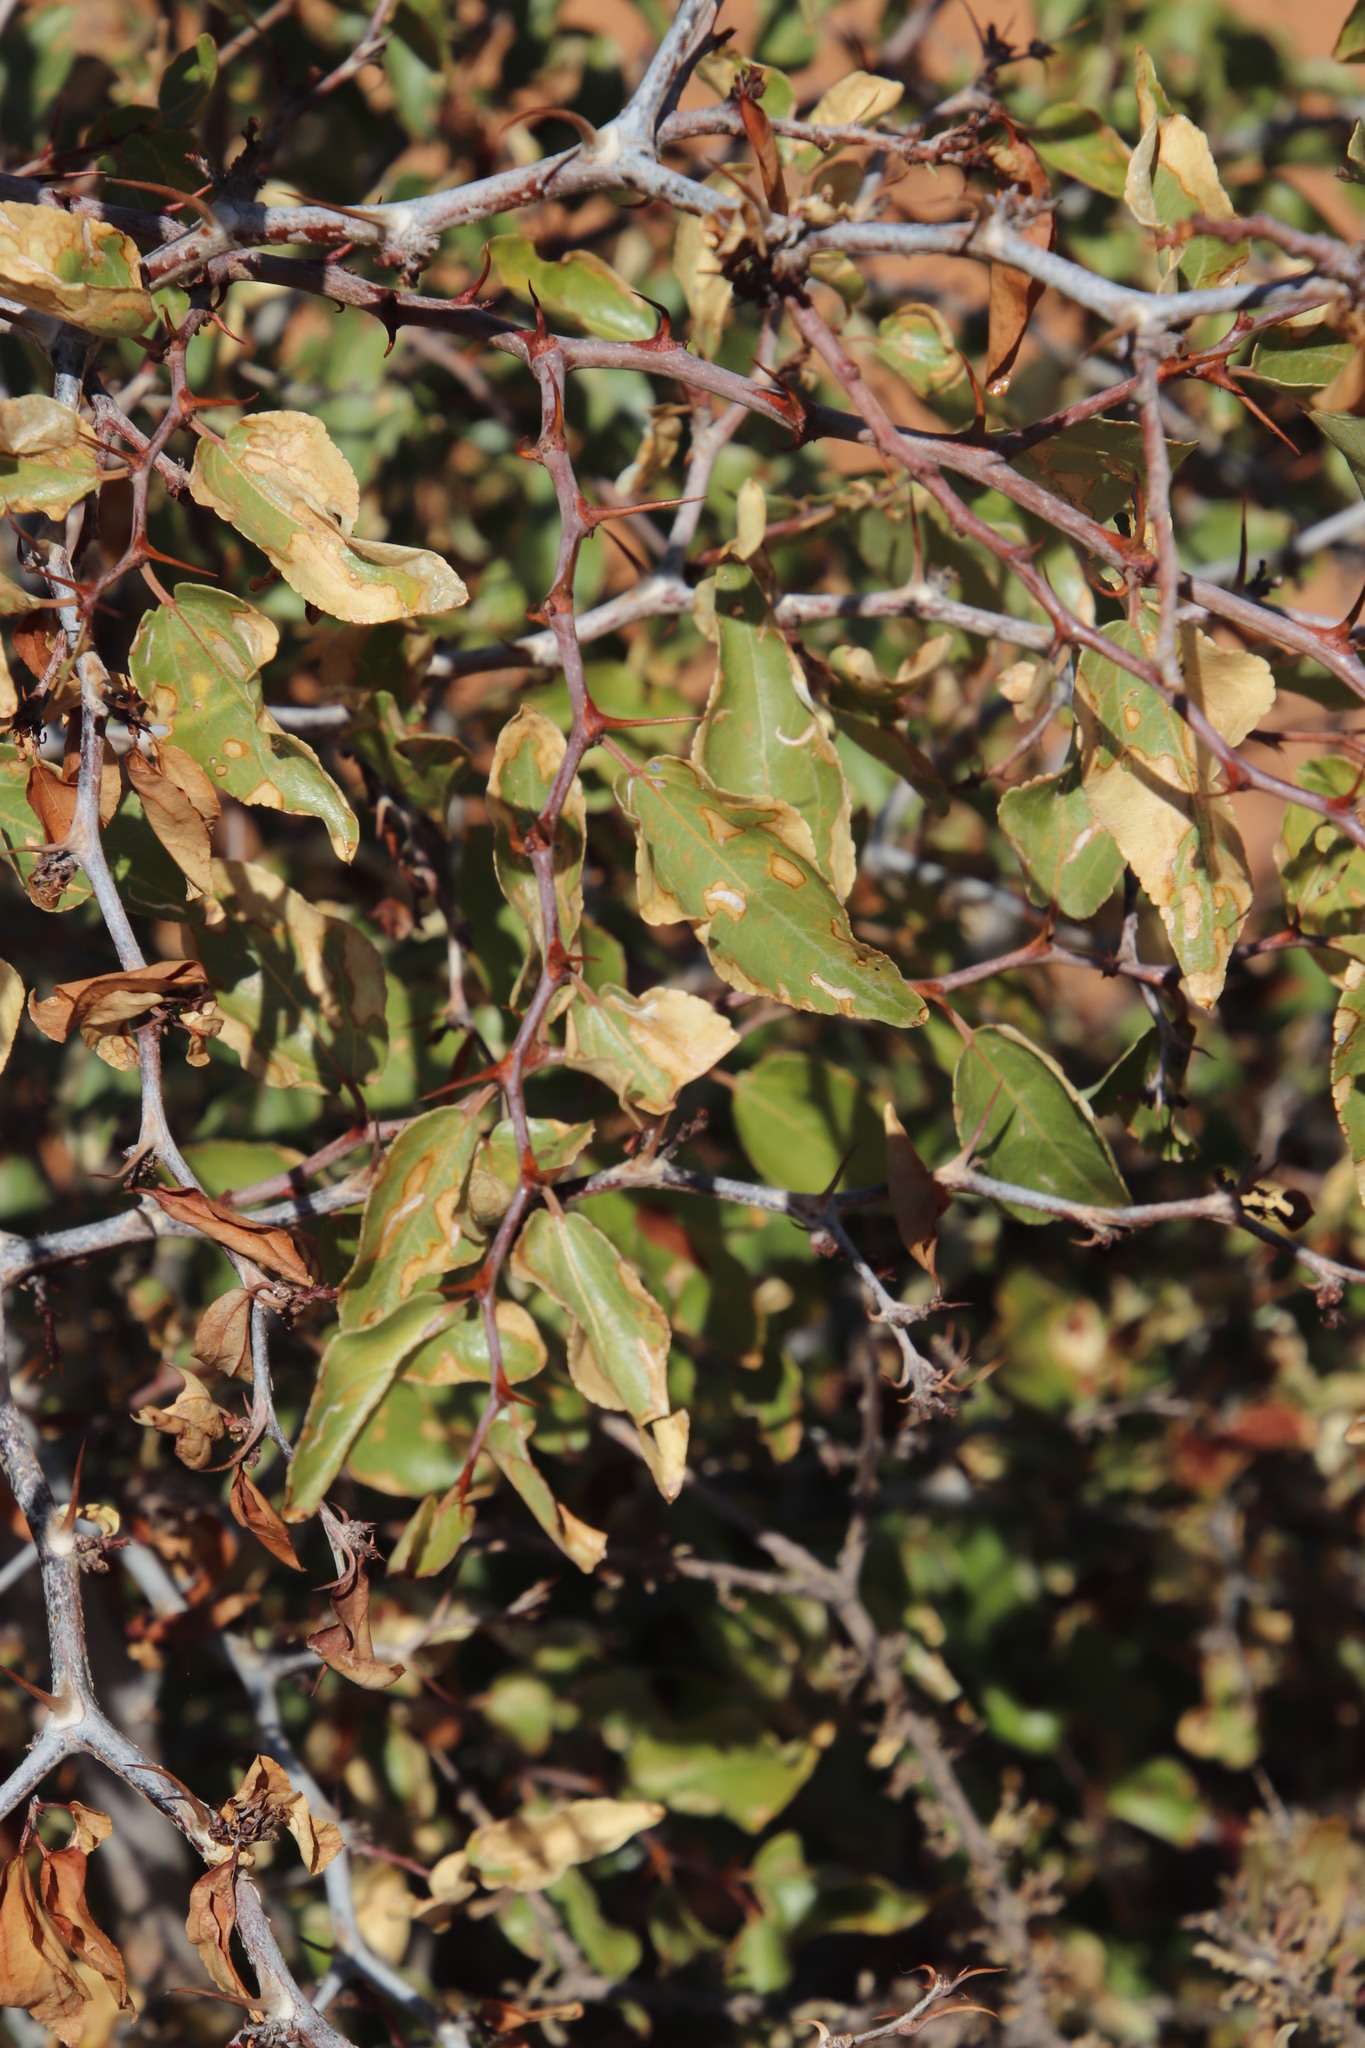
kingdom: Plantae
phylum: Tracheophyta
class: Magnoliopsida
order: Rosales
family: Rhamnaceae
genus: Ziziphus
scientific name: Ziziphus mucronata
